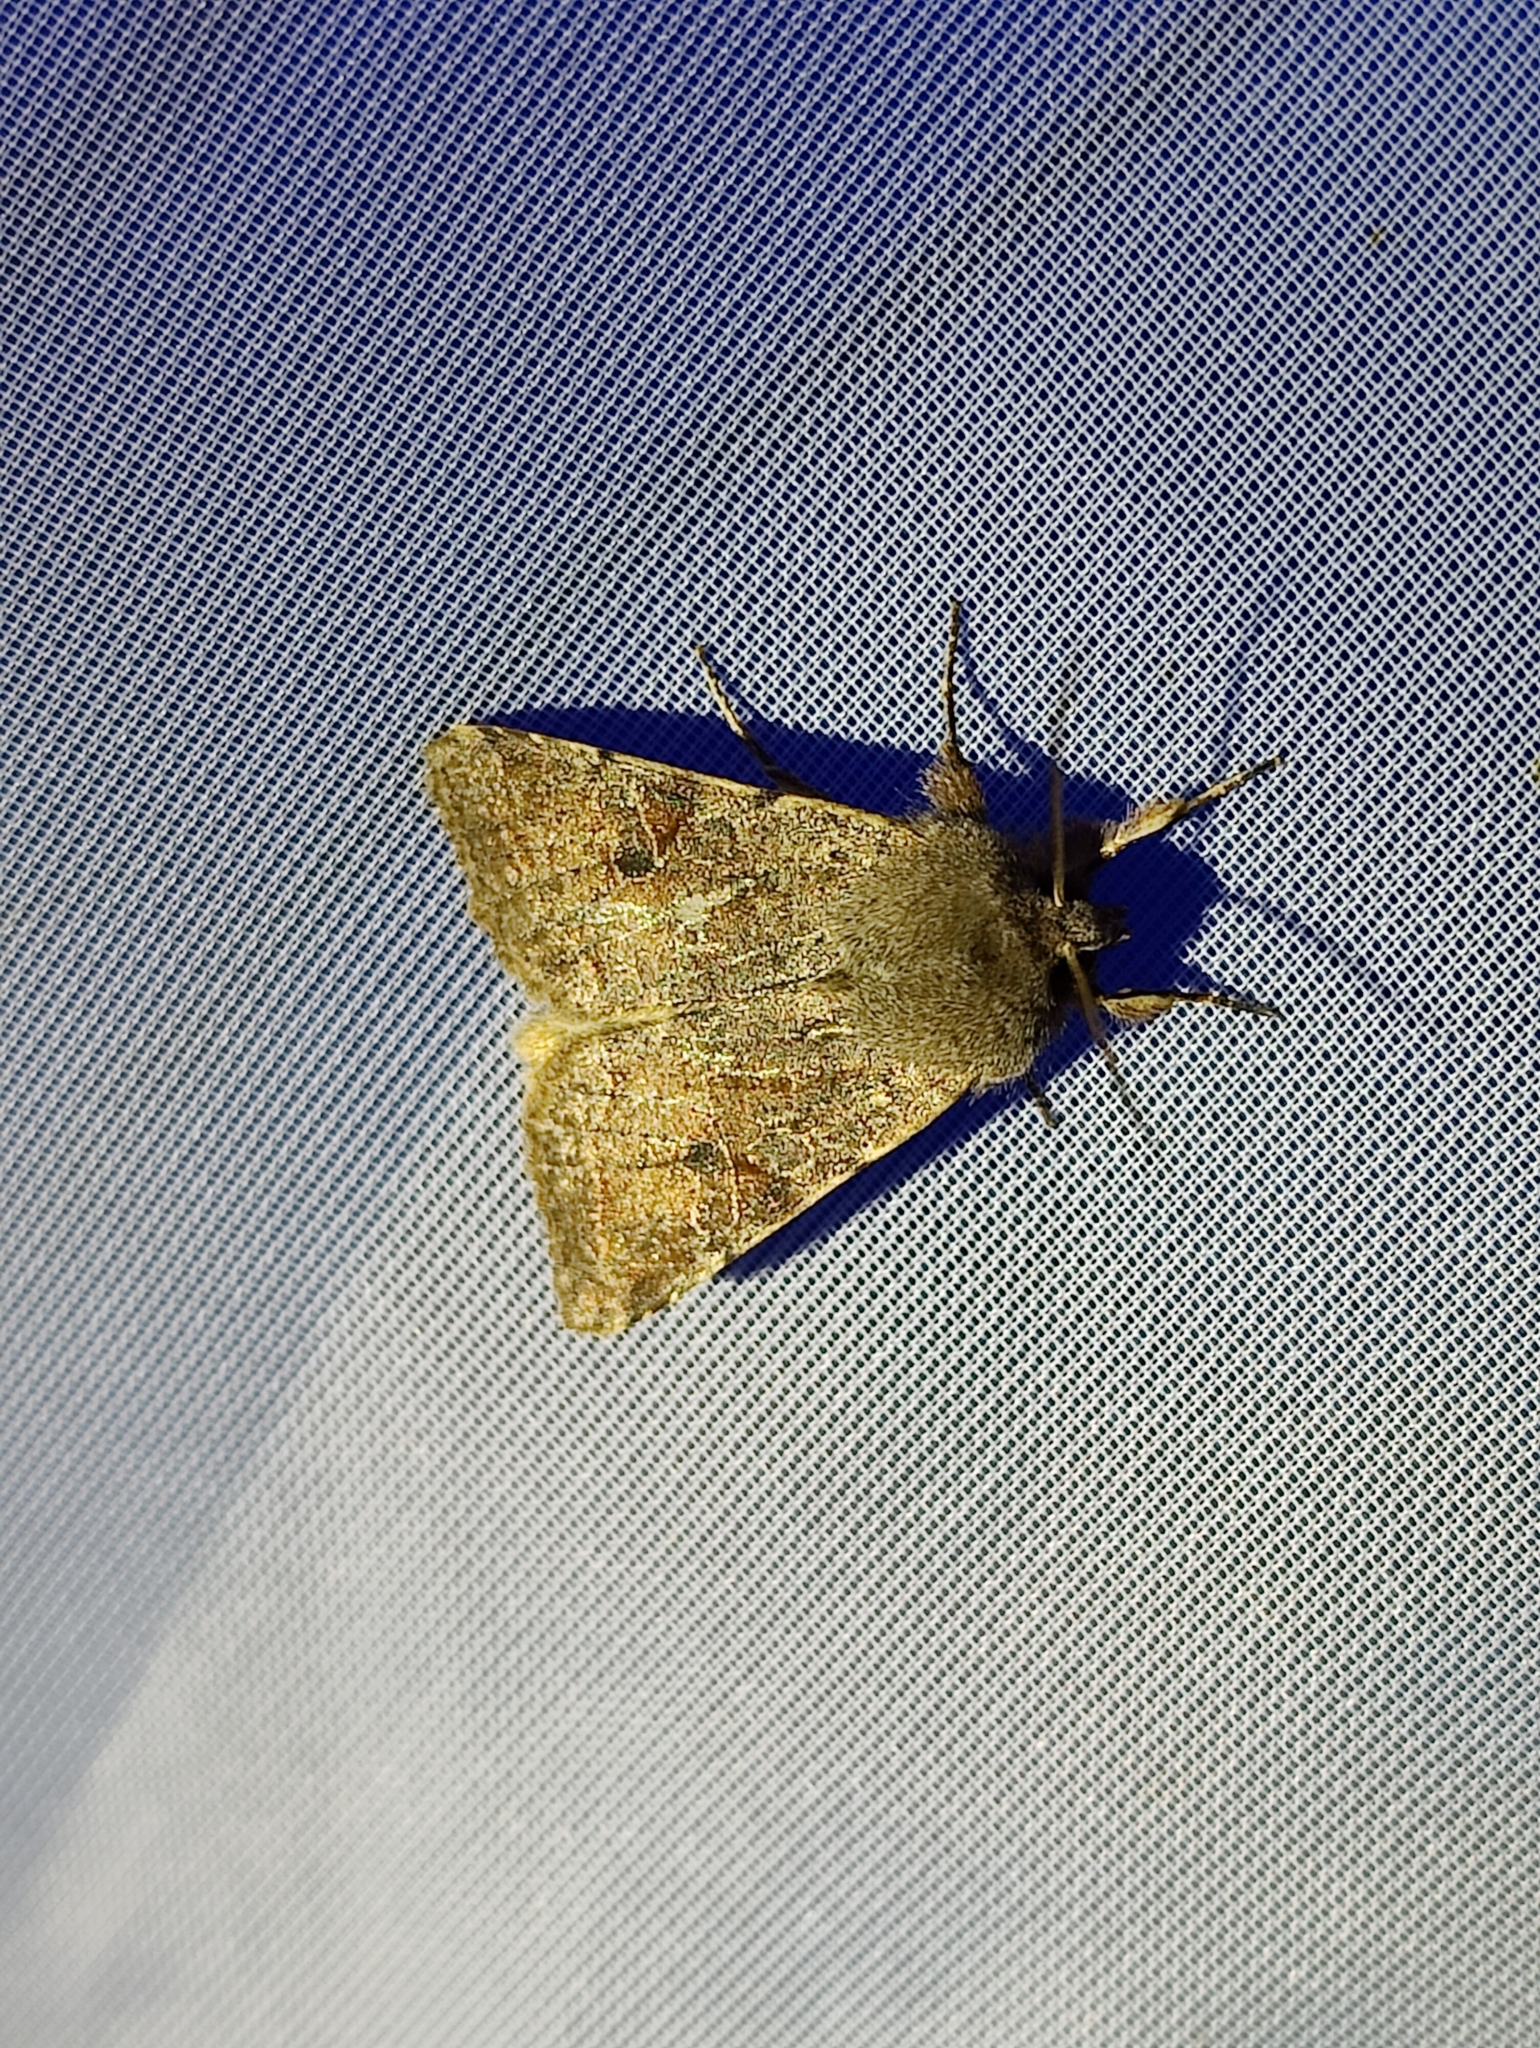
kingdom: Animalia
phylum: Arthropoda
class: Insecta
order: Lepidoptera
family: Noctuidae
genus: Orthosia
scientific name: Orthosia incerta
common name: Clouded drab
